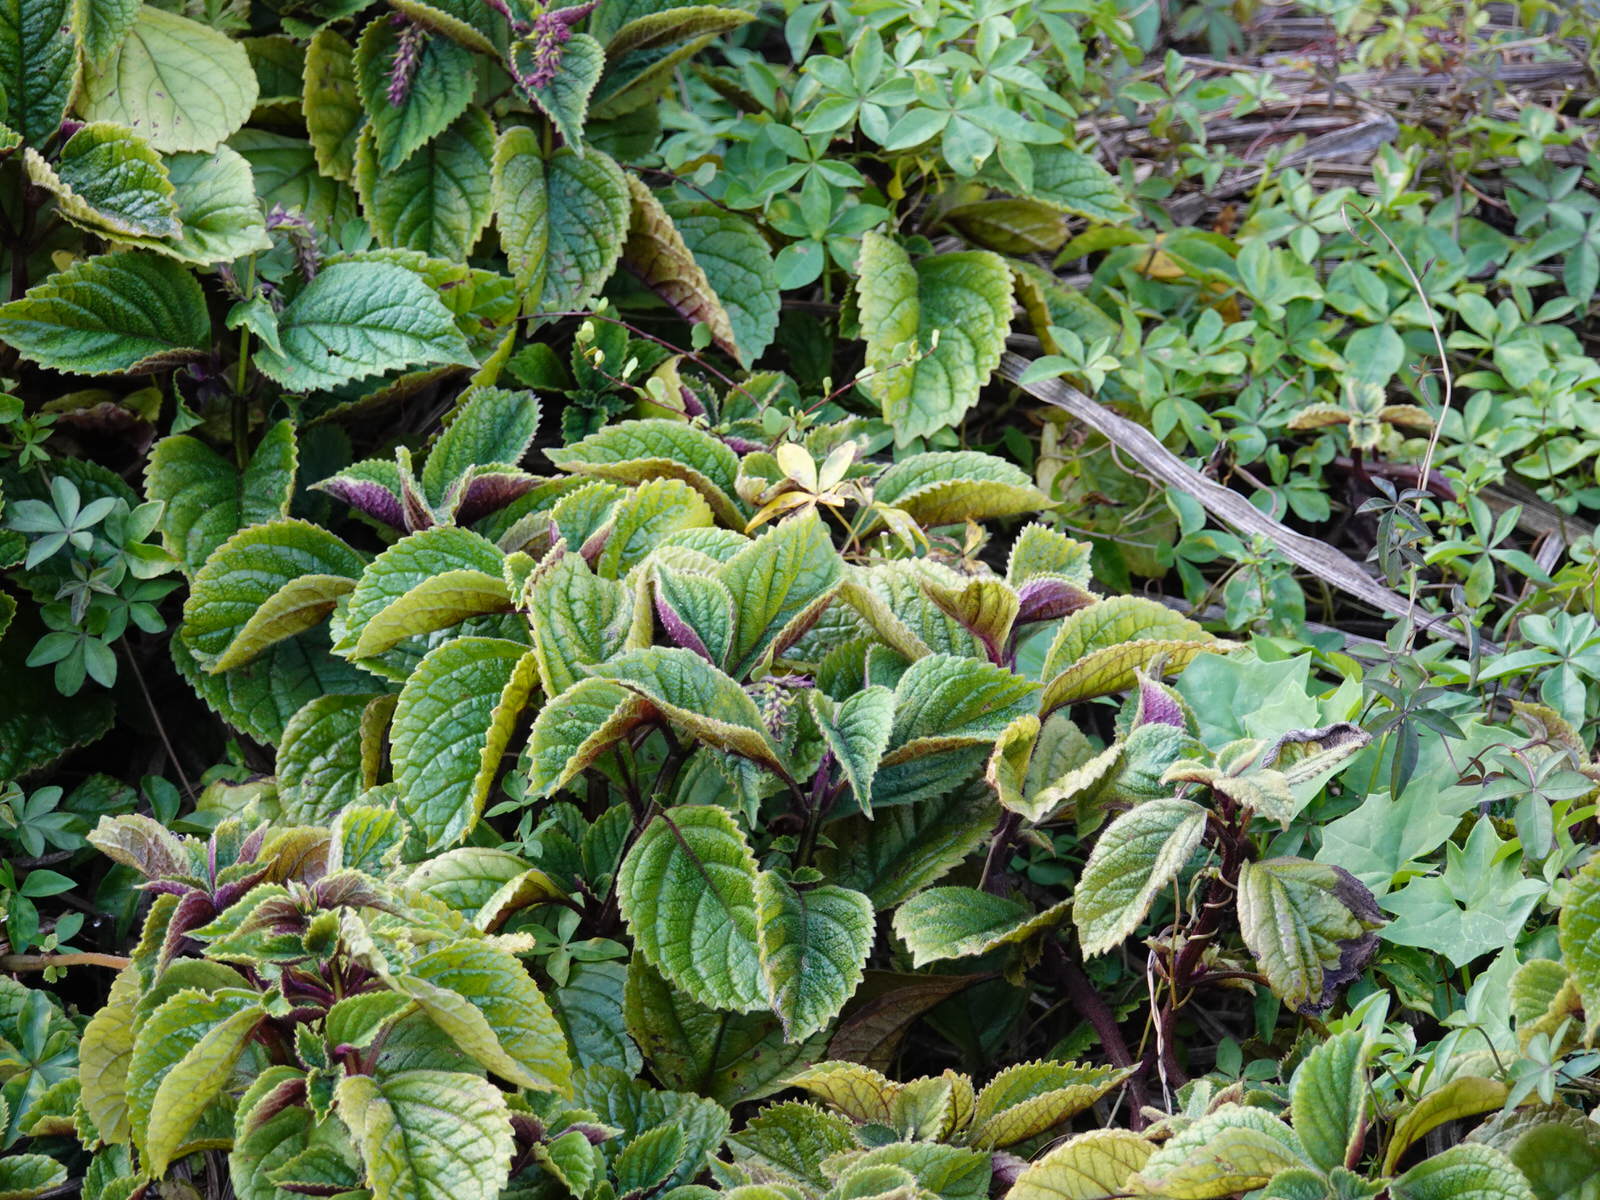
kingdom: Plantae
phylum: Tracheophyta
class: Magnoliopsida
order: Lamiales
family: Lamiaceae
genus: Plectranthus
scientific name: Plectranthus ciliatus
